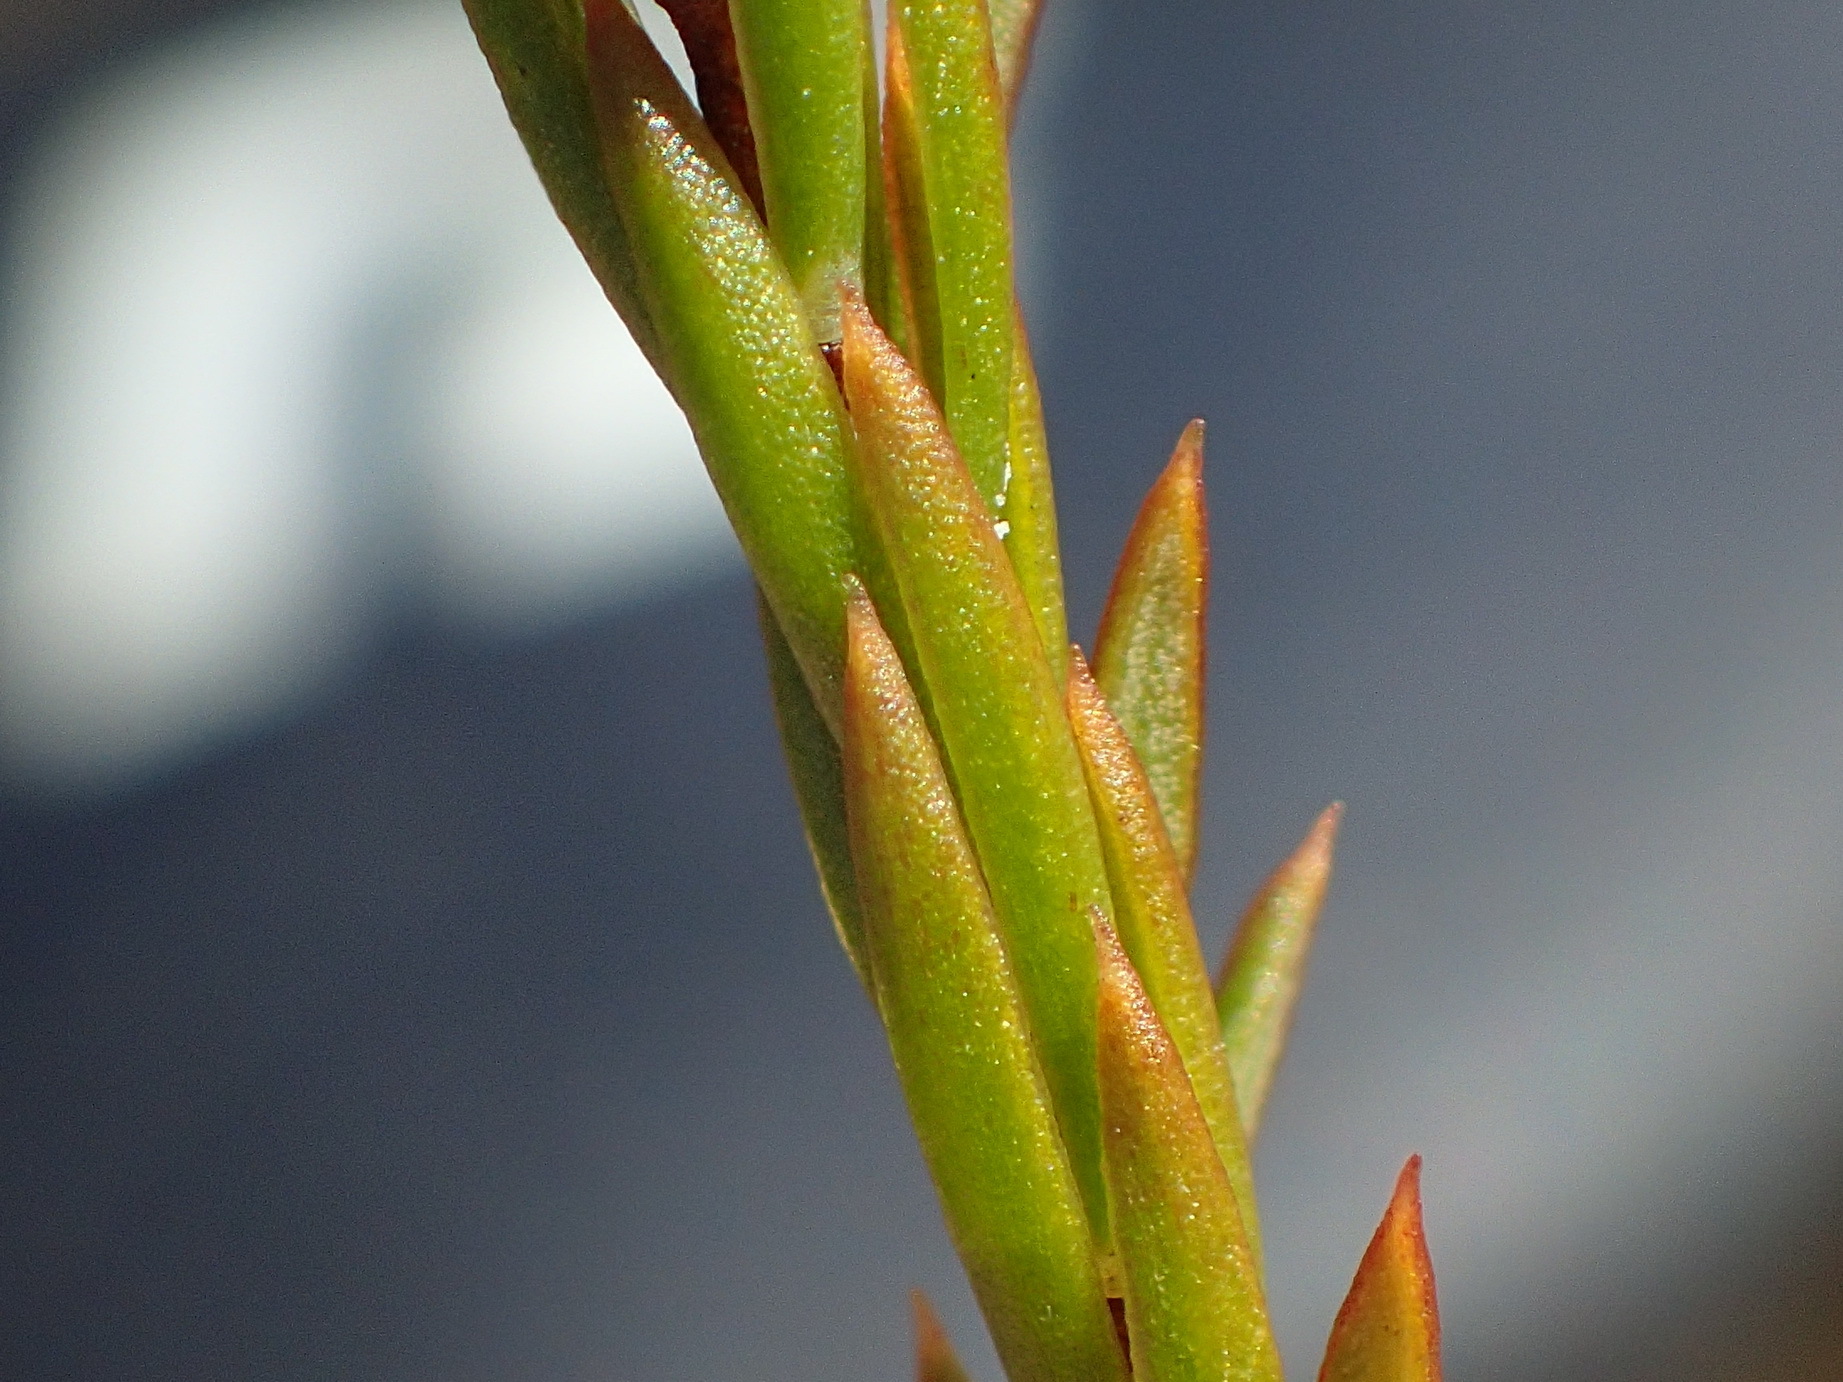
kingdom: Plantae
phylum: Tracheophyta
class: Magnoliopsida
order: Malvales
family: Thymelaeaceae
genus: Lachnaea
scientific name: Lachnaea diosmoides
